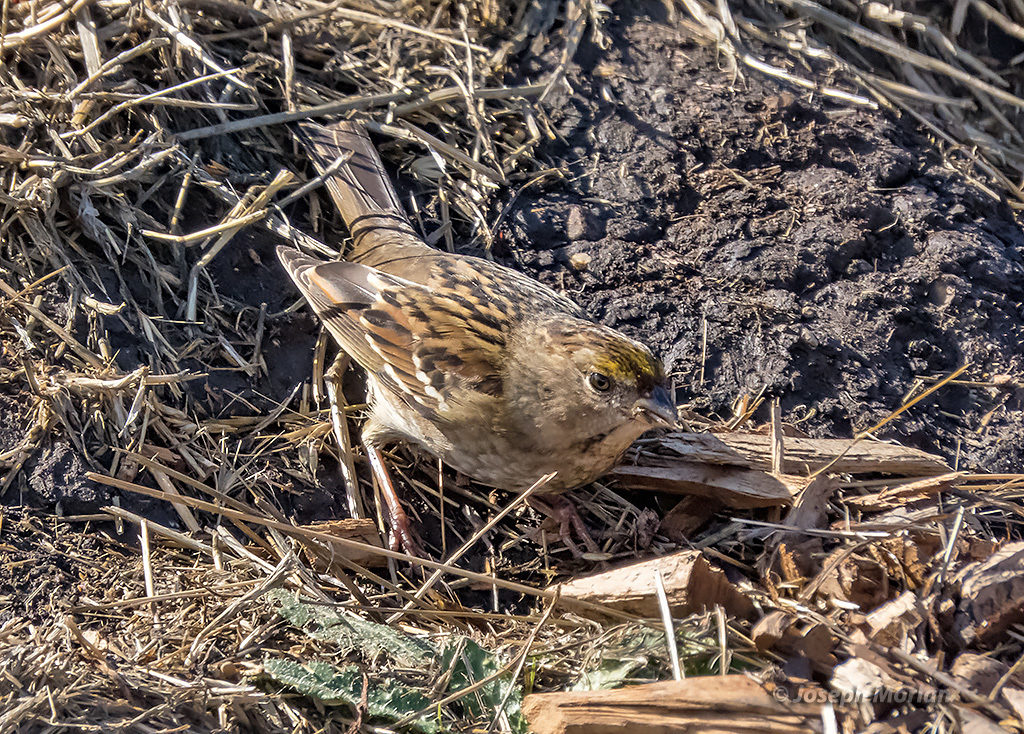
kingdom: Animalia
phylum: Chordata
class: Aves
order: Passeriformes
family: Passerellidae
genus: Zonotrichia
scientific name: Zonotrichia atricapilla
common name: Golden-crowned sparrow
